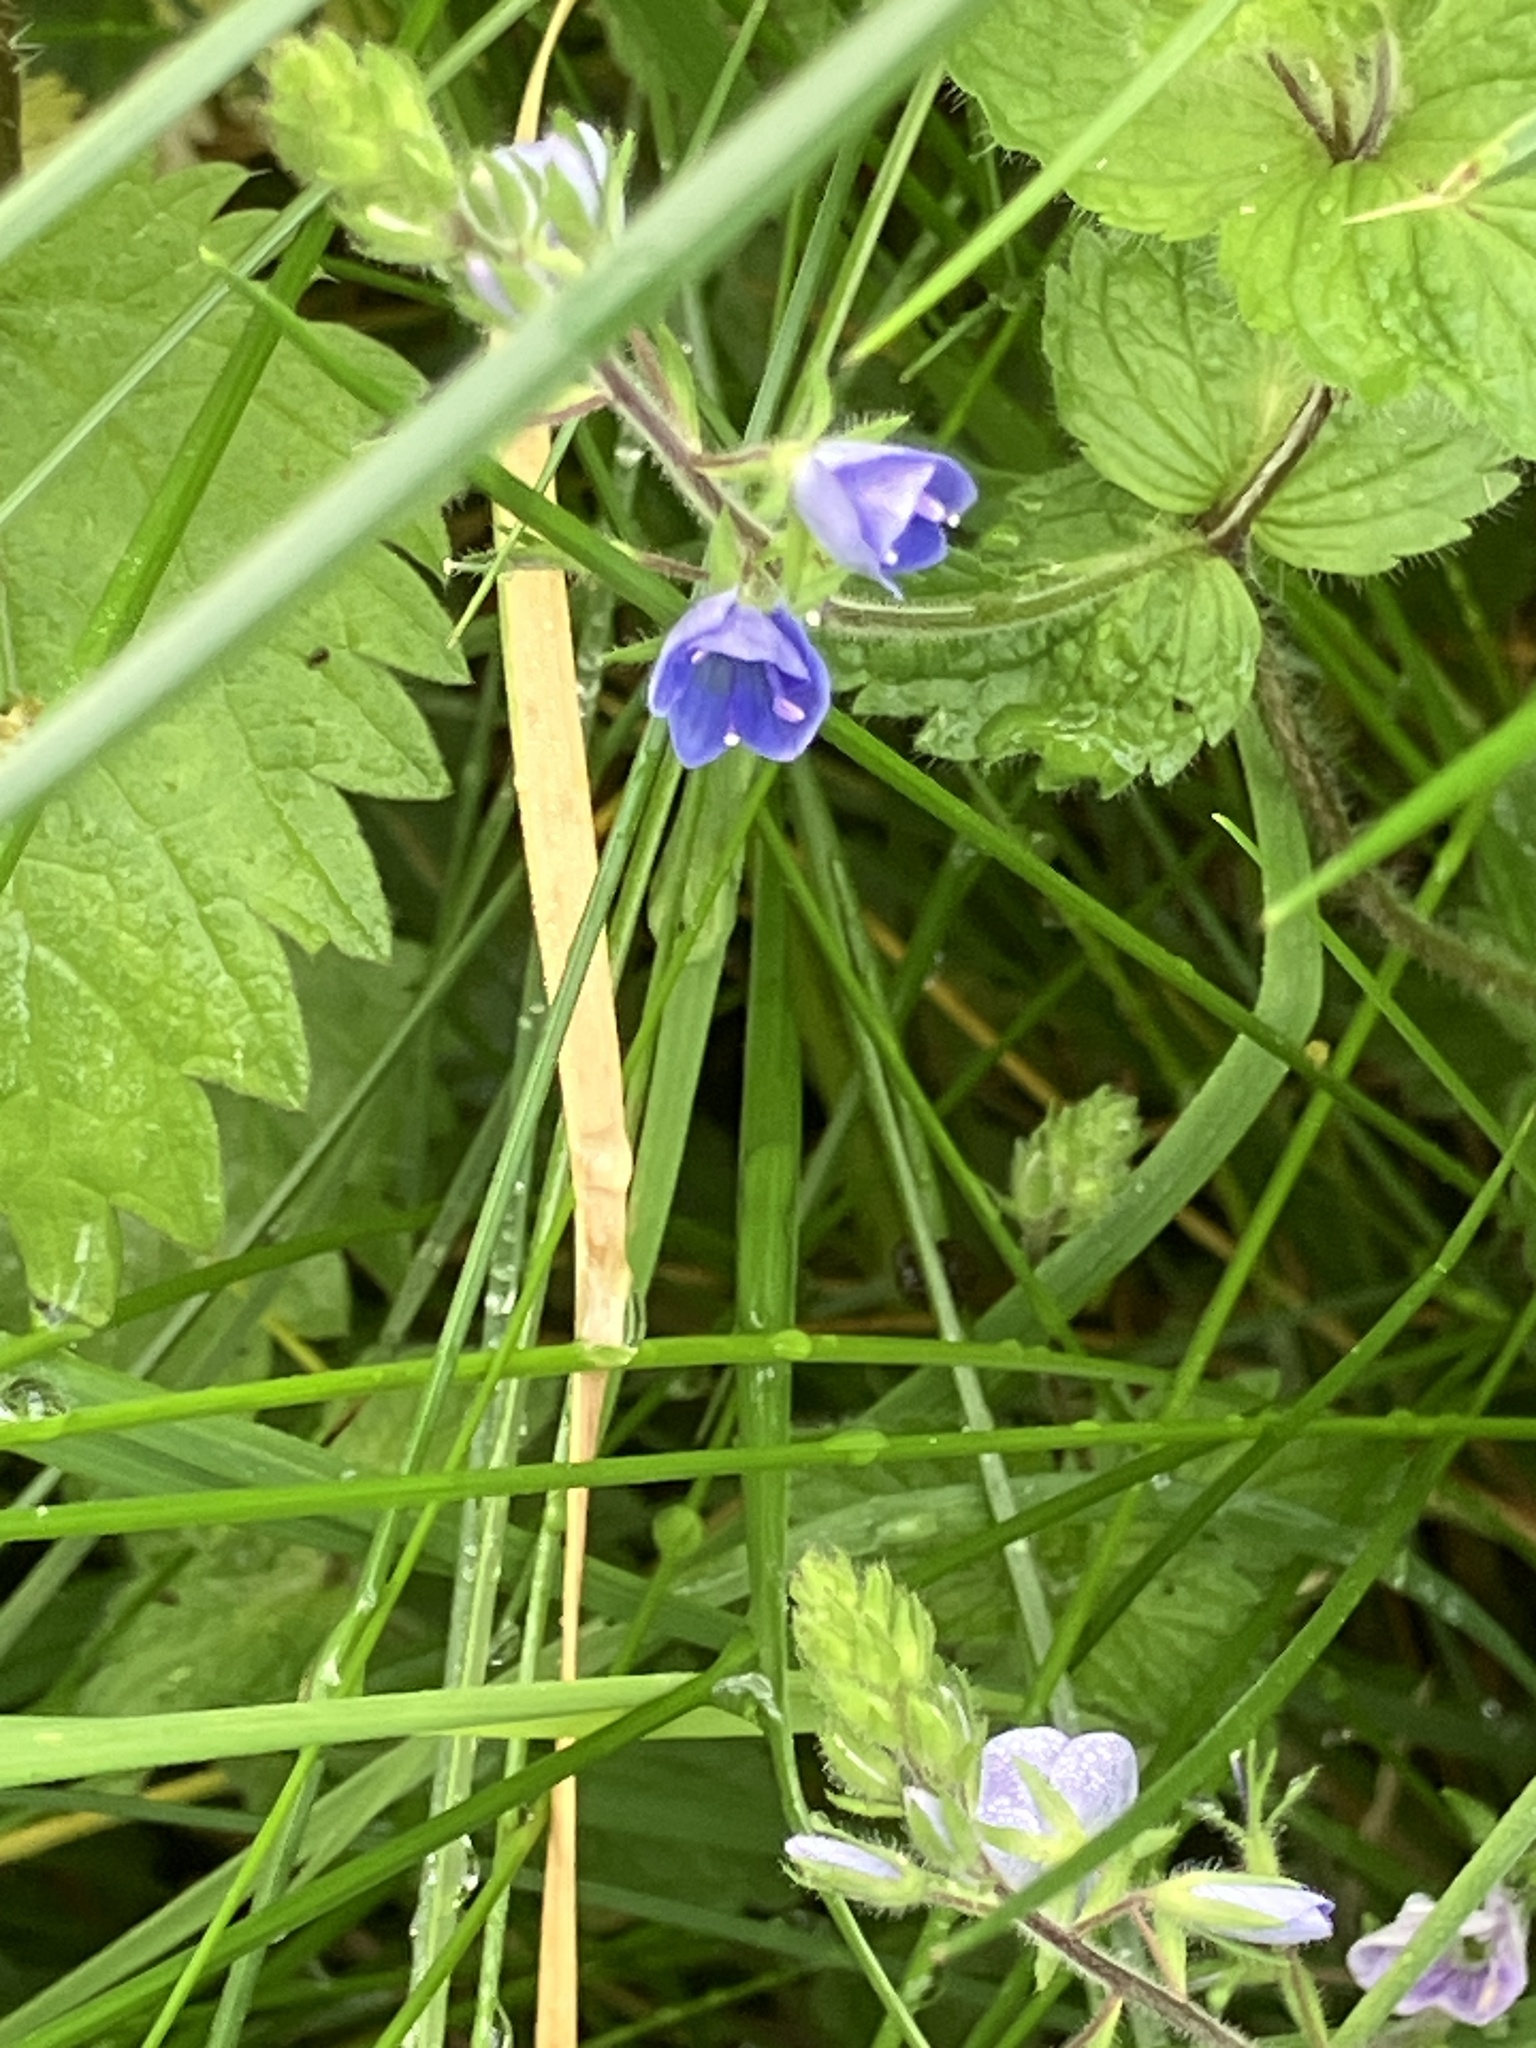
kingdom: Plantae
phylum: Tracheophyta
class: Magnoliopsida
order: Lamiales
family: Plantaginaceae
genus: Veronica
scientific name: Veronica chamaedrys
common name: Germander speedwell
